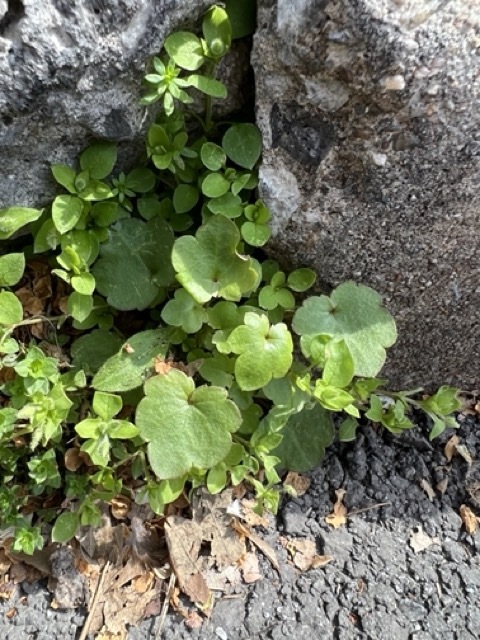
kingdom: Plantae
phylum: Tracheophyta
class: Magnoliopsida
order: Lamiales
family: Plantaginaceae
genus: Cymbalaria
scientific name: Cymbalaria muralis
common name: Ivy-leaved toadflax
